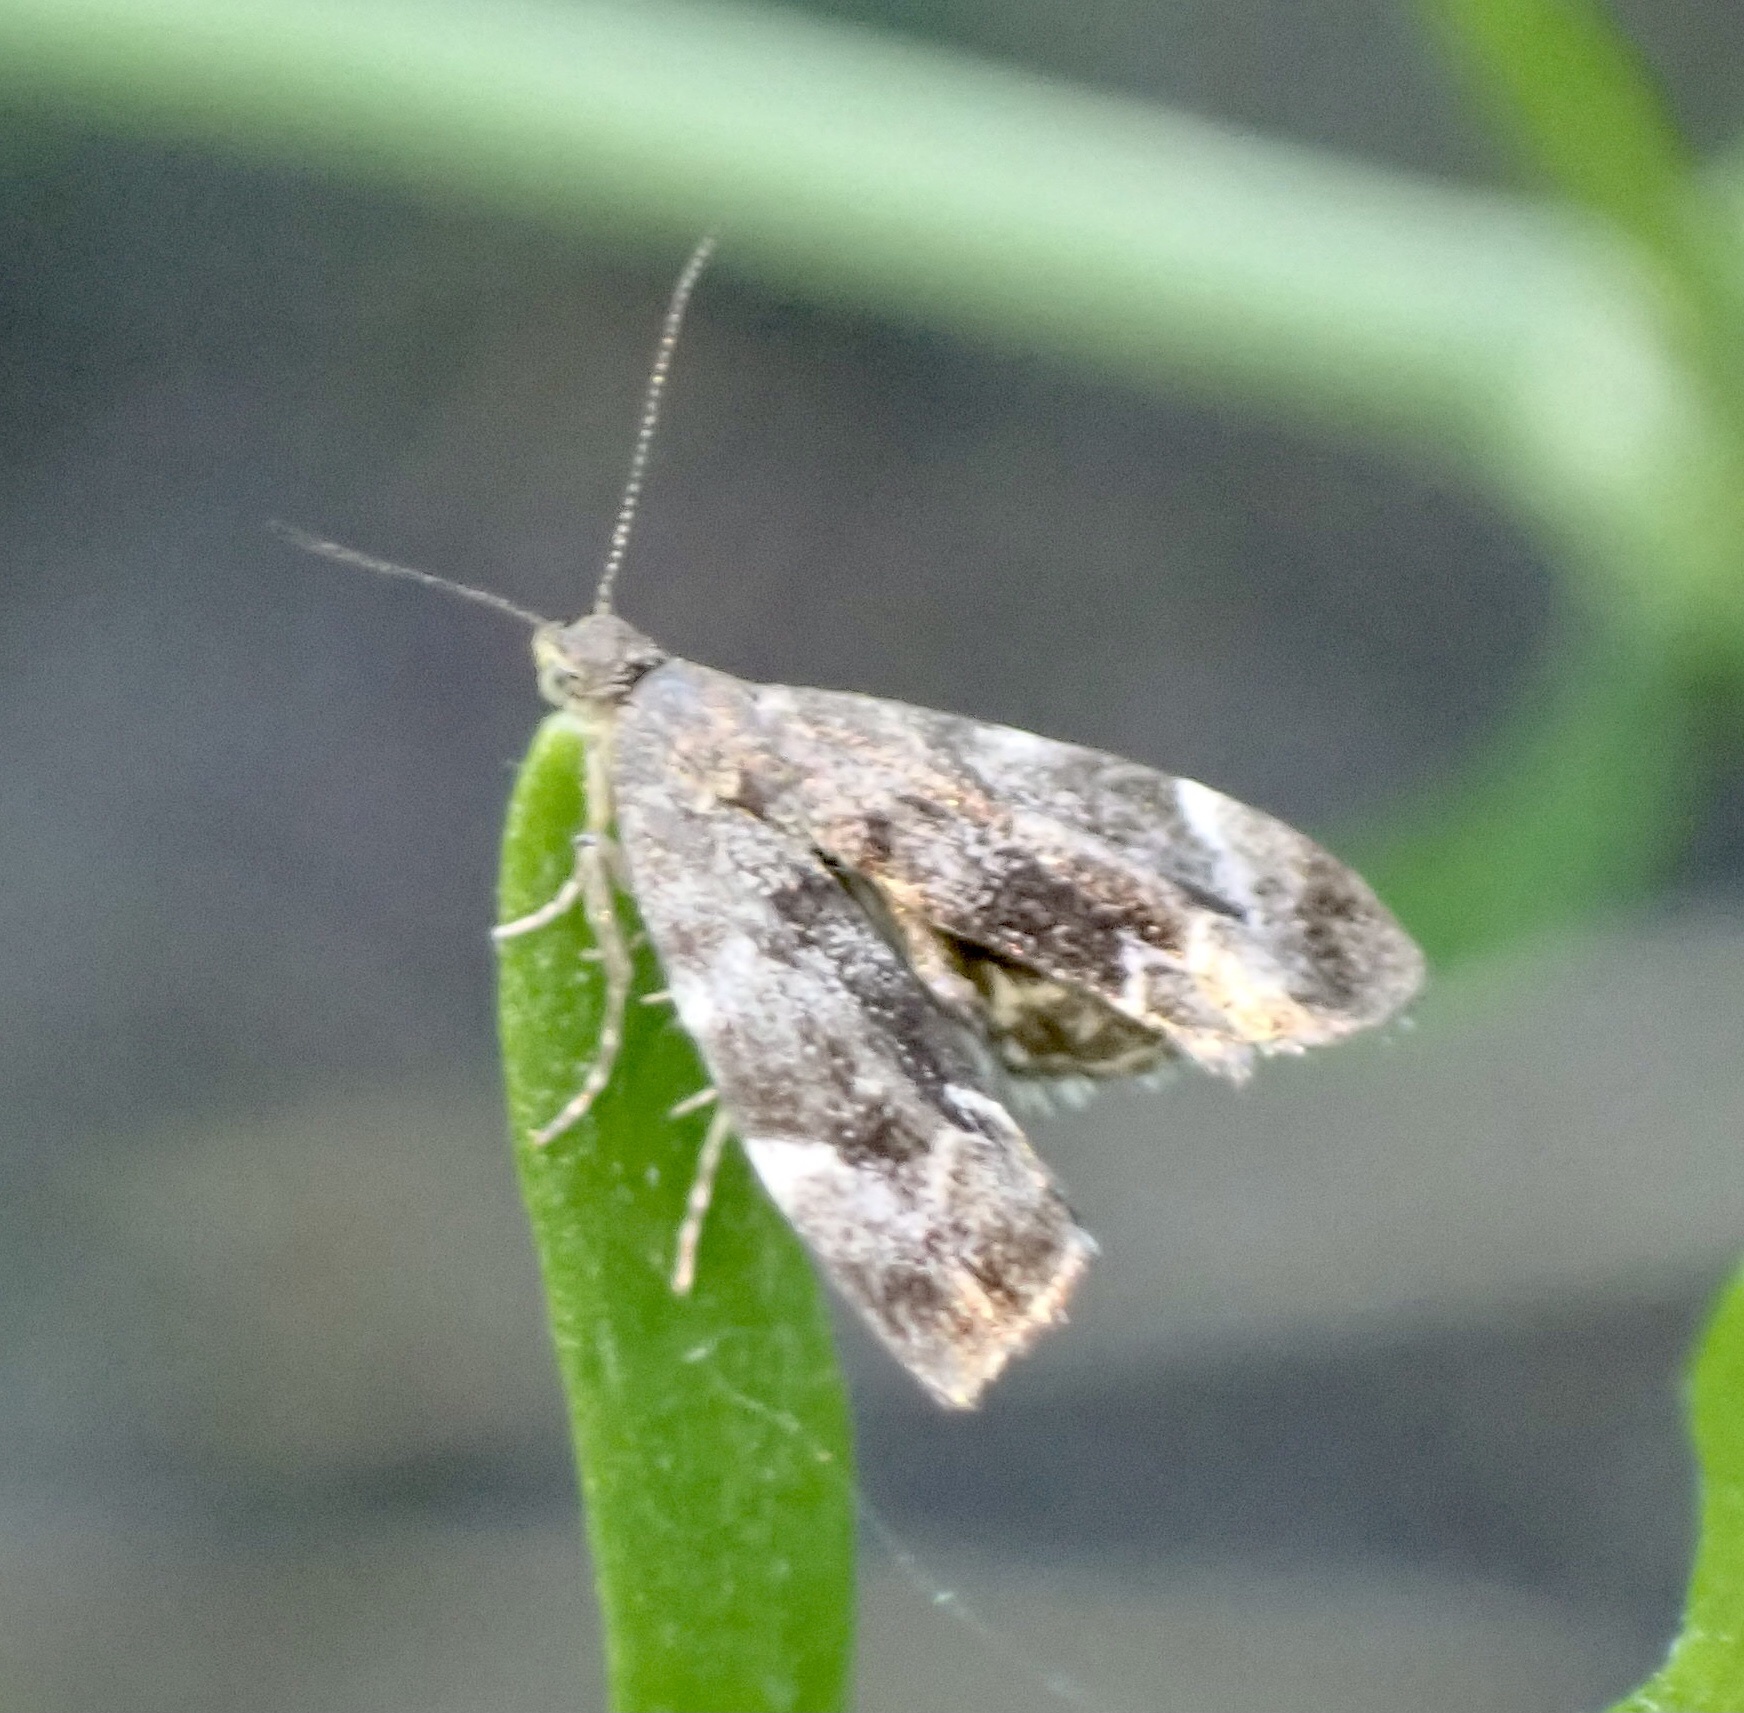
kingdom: Animalia
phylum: Arthropoda
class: Insecta
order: Lepidoptera
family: Choreutidae
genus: Anthophila
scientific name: Anthophila fabriciana
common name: Nettle-tap
